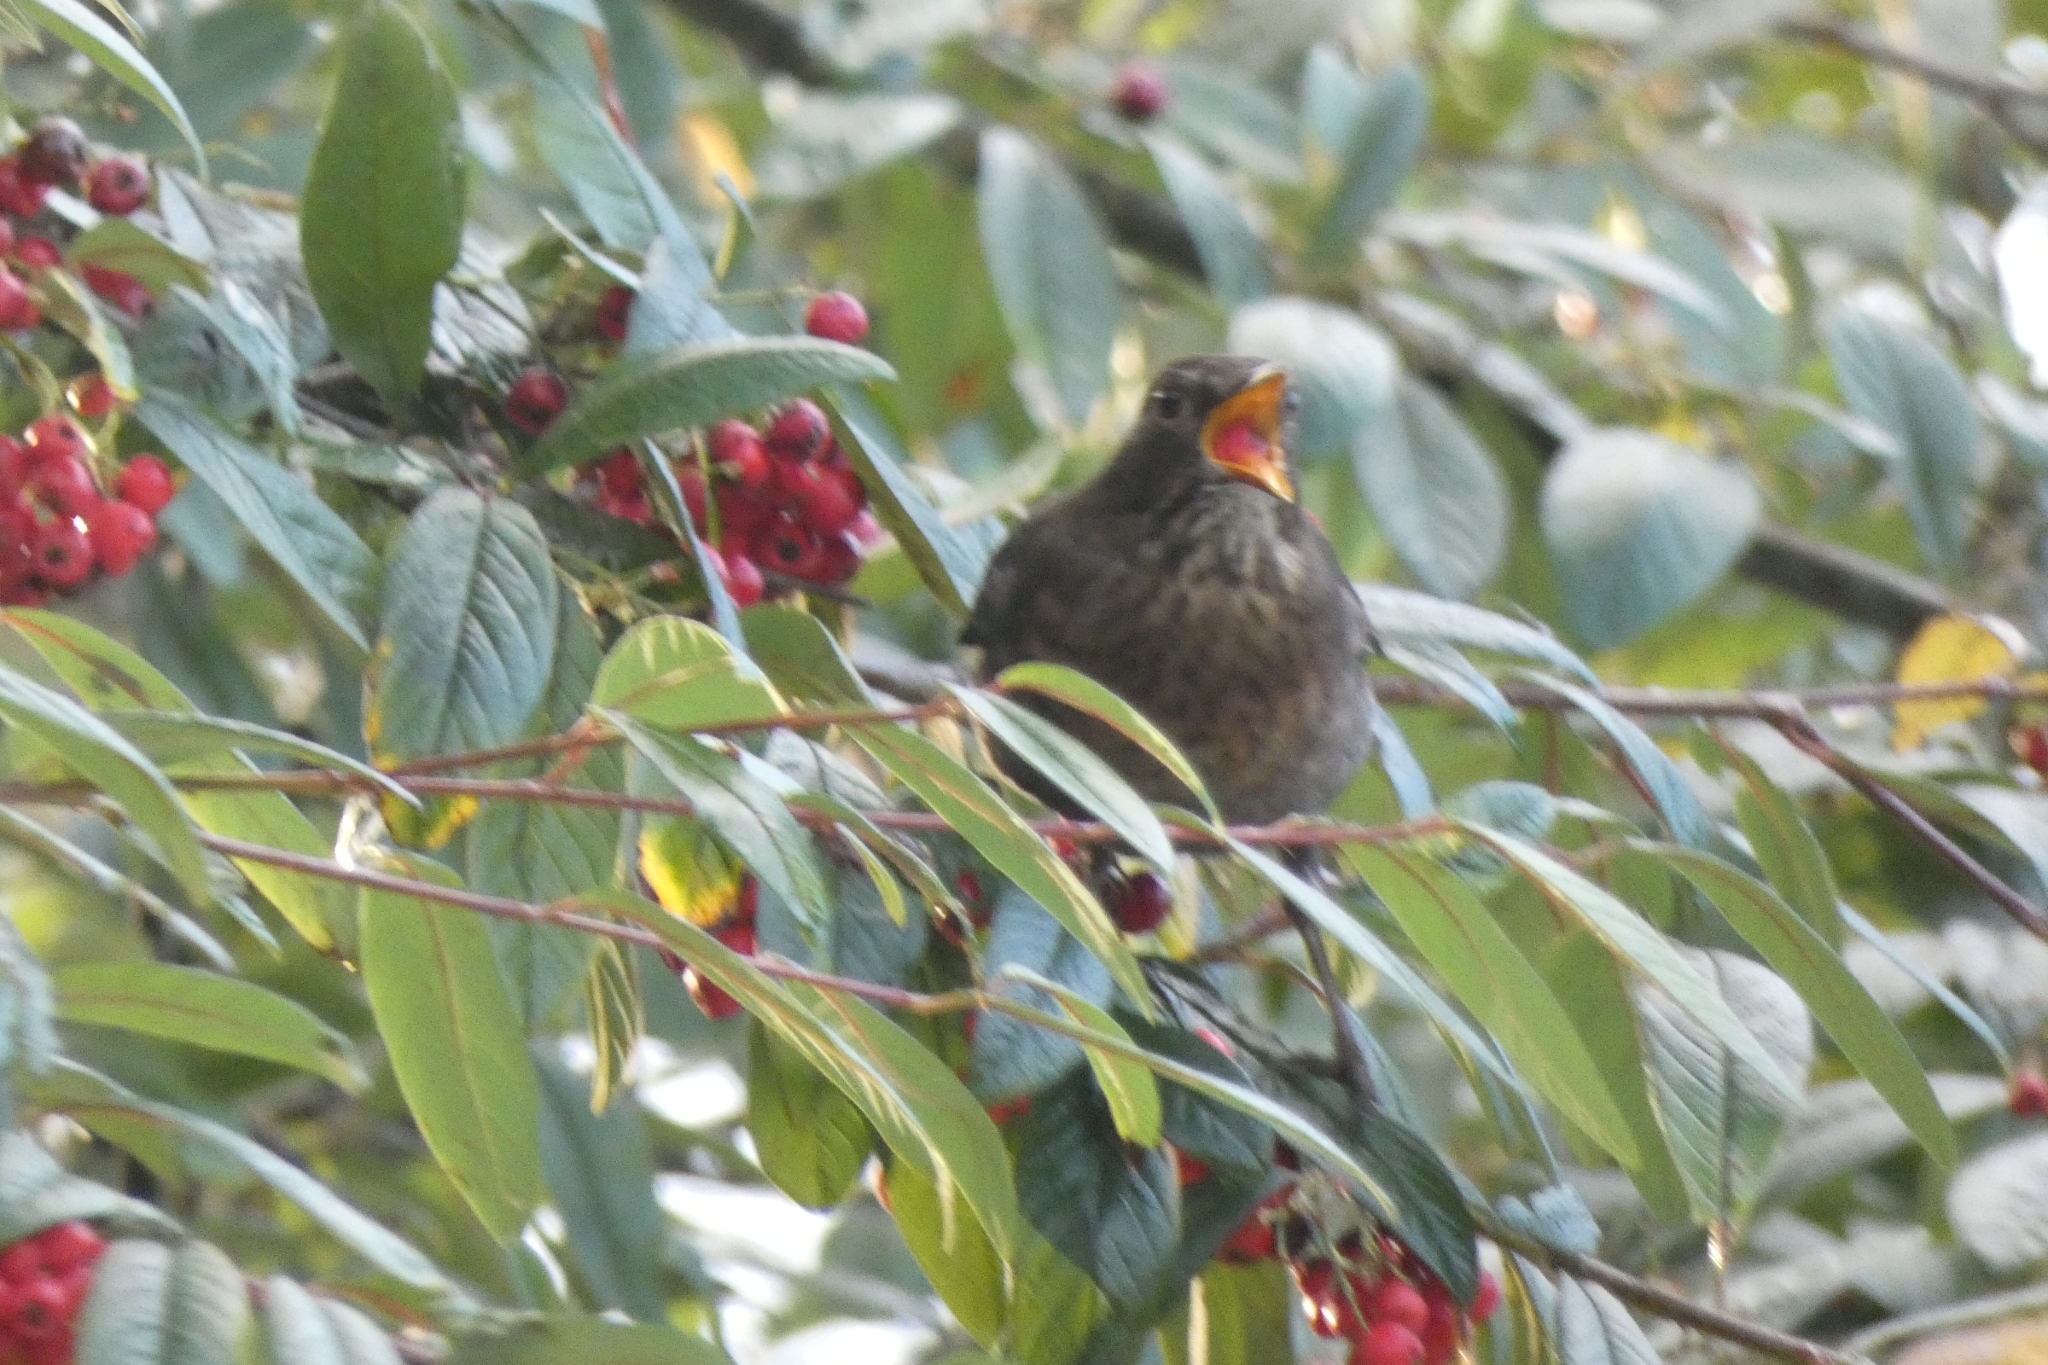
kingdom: Animalia
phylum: Chordata
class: Aves
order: Passeriformes
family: Turdidae
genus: Turdus
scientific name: Turdus merula
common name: Common blackbird
